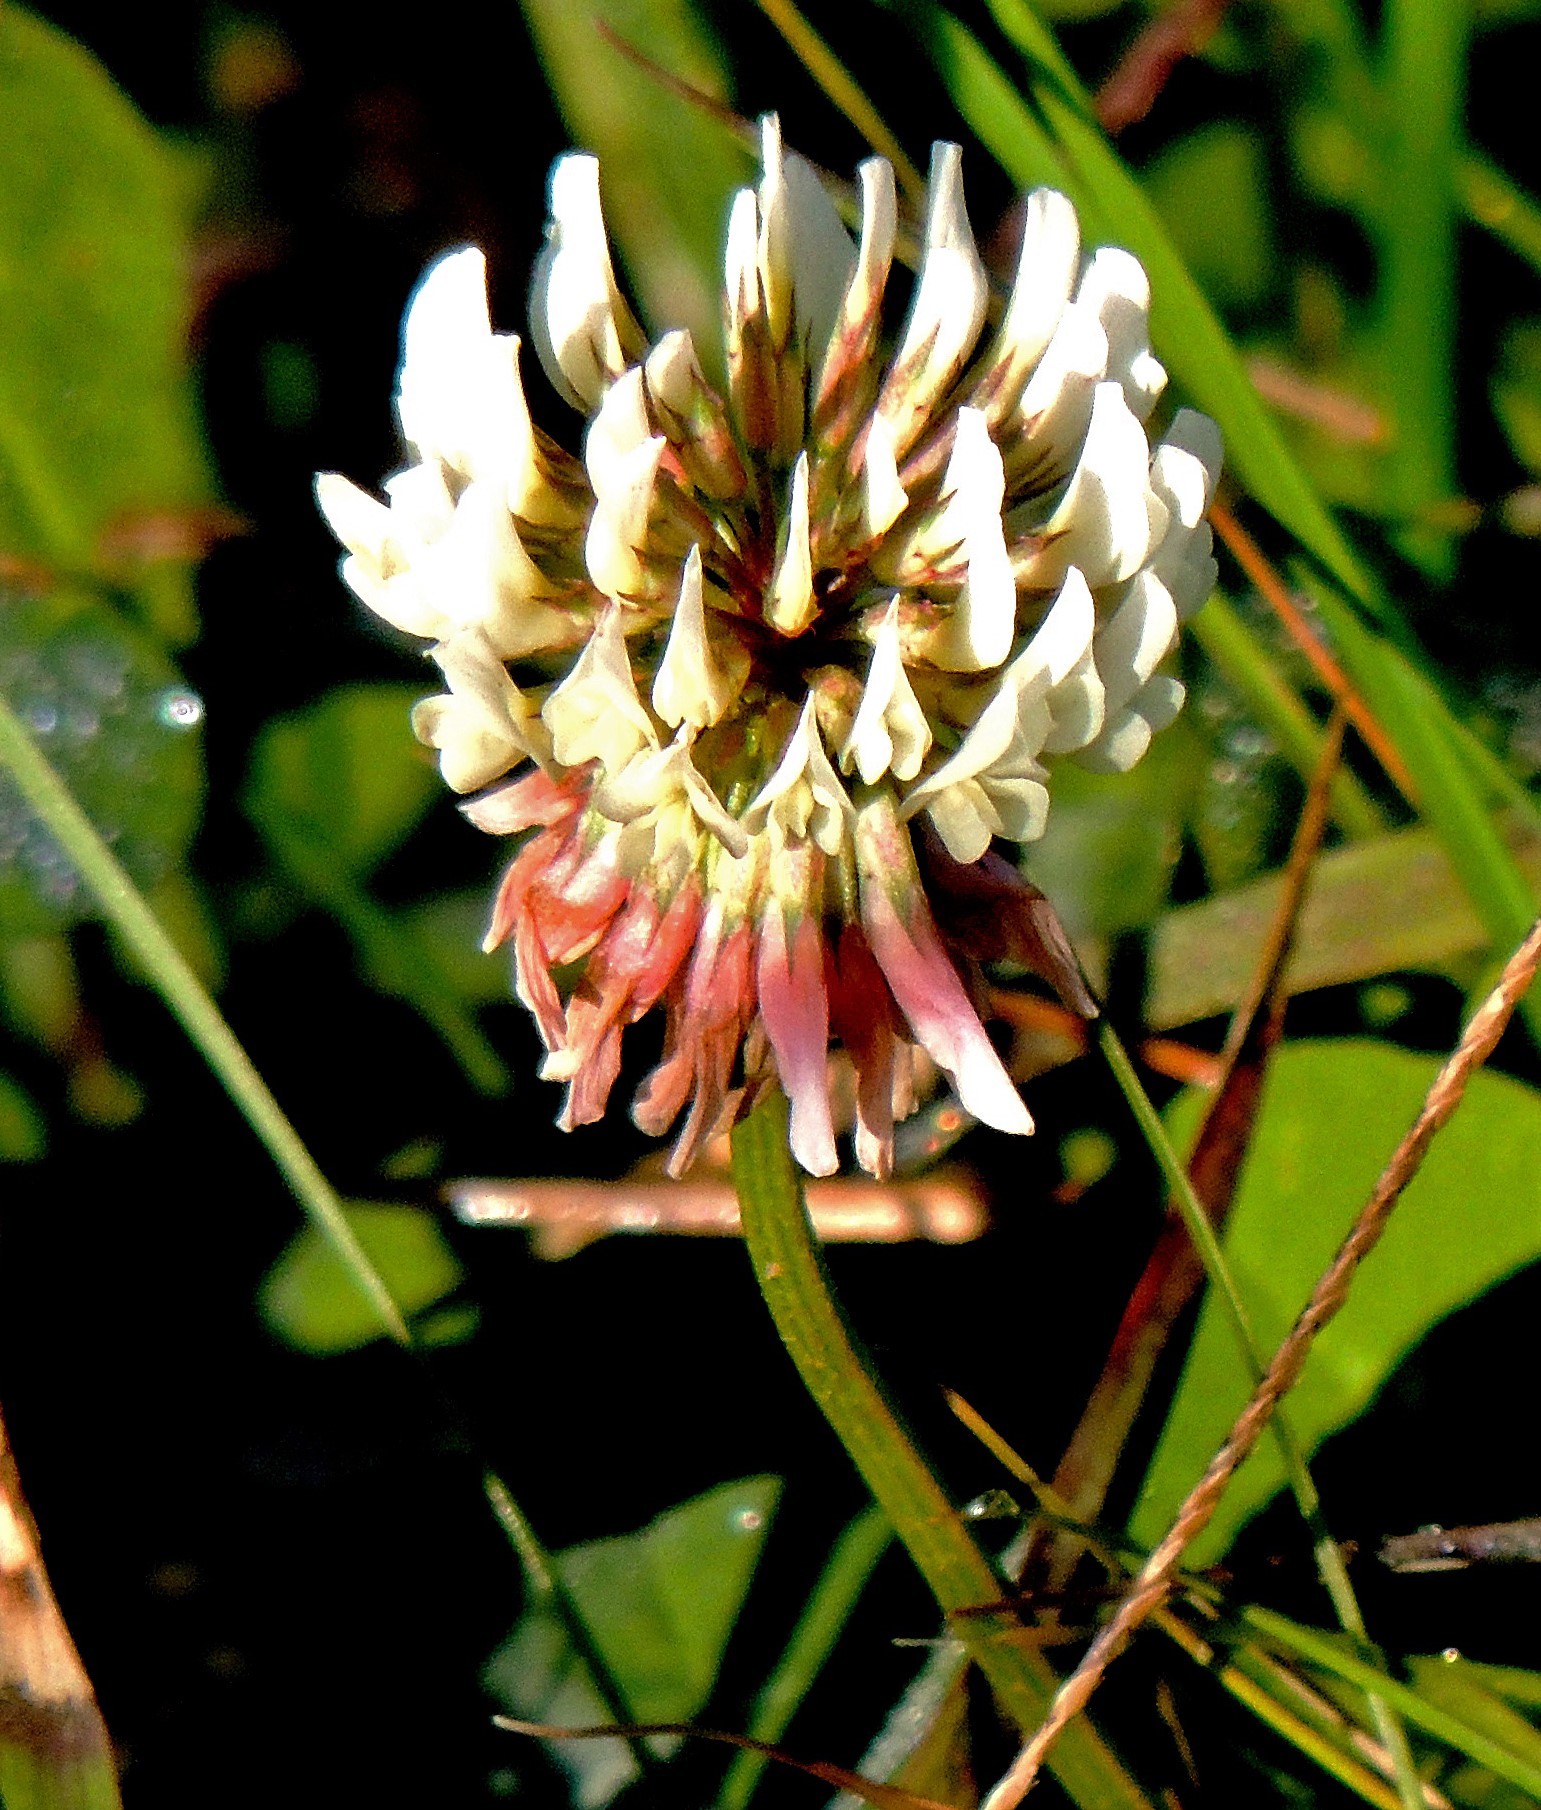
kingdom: Plantae
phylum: Tracheophyta
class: Magnoliopsida
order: Fabales
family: Fabaceae
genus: Trifolium
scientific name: Trifolium repens
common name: White clover
